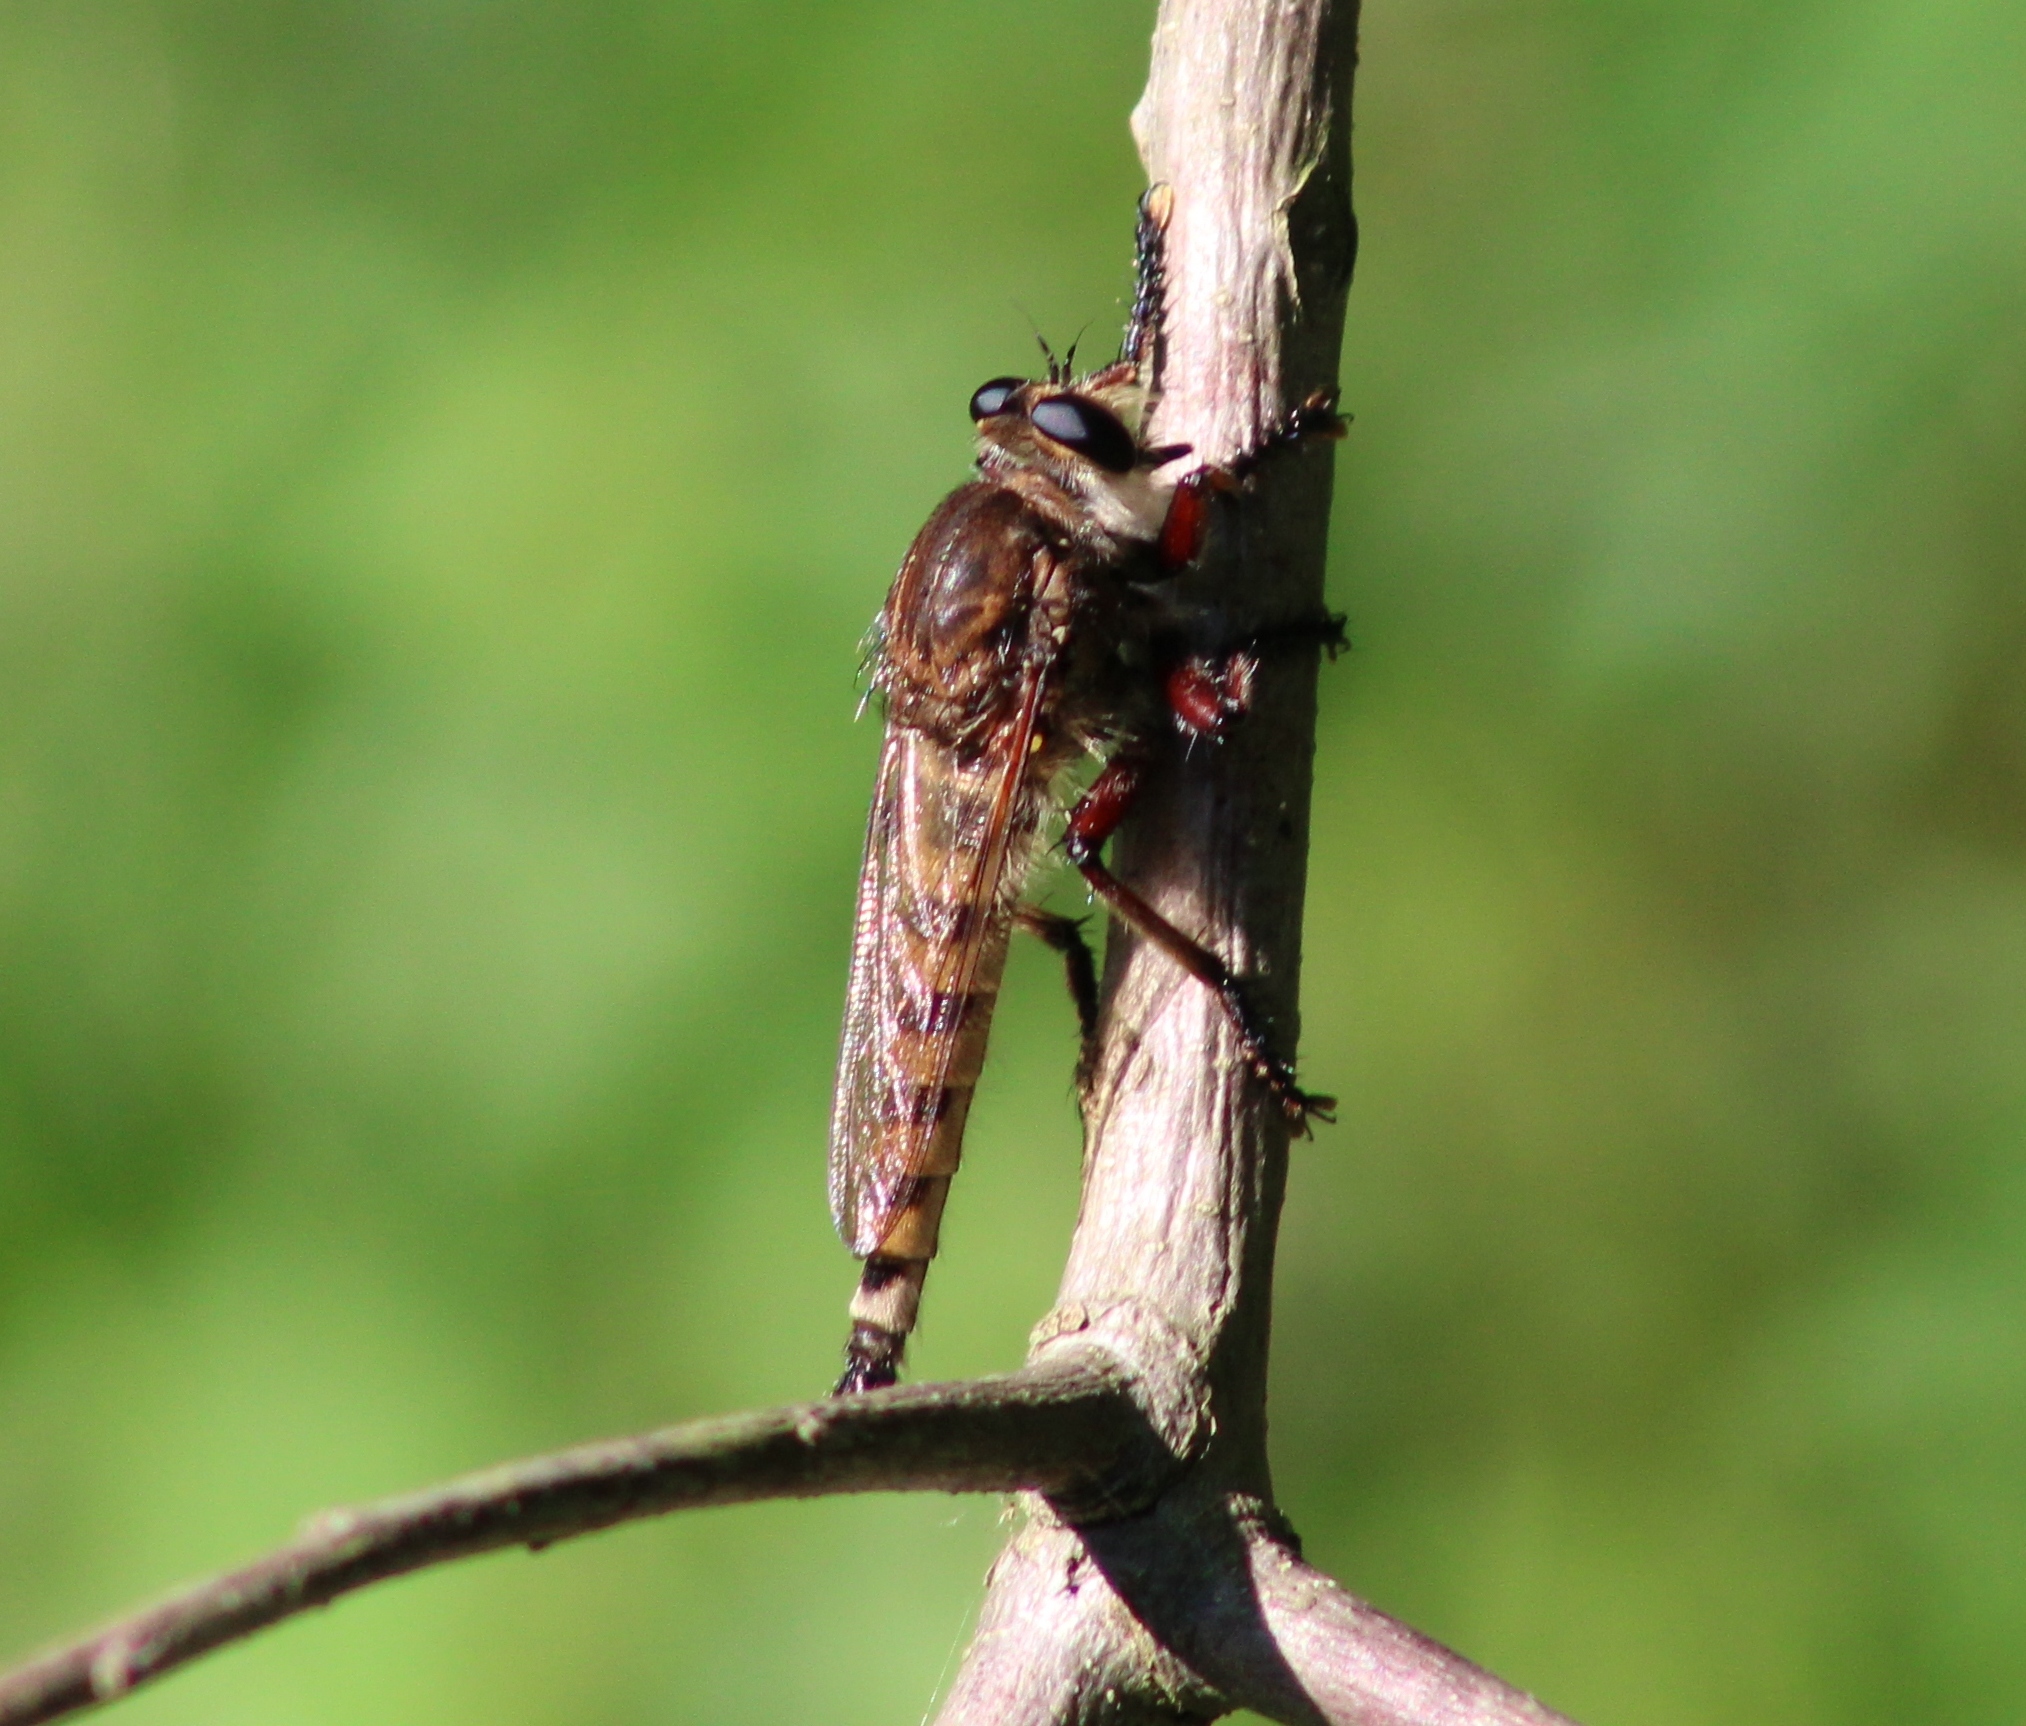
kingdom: Animalia
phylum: Arthropoda
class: Insecta
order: Diptera
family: Asilidae
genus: Promachus
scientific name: Promachus hinei
